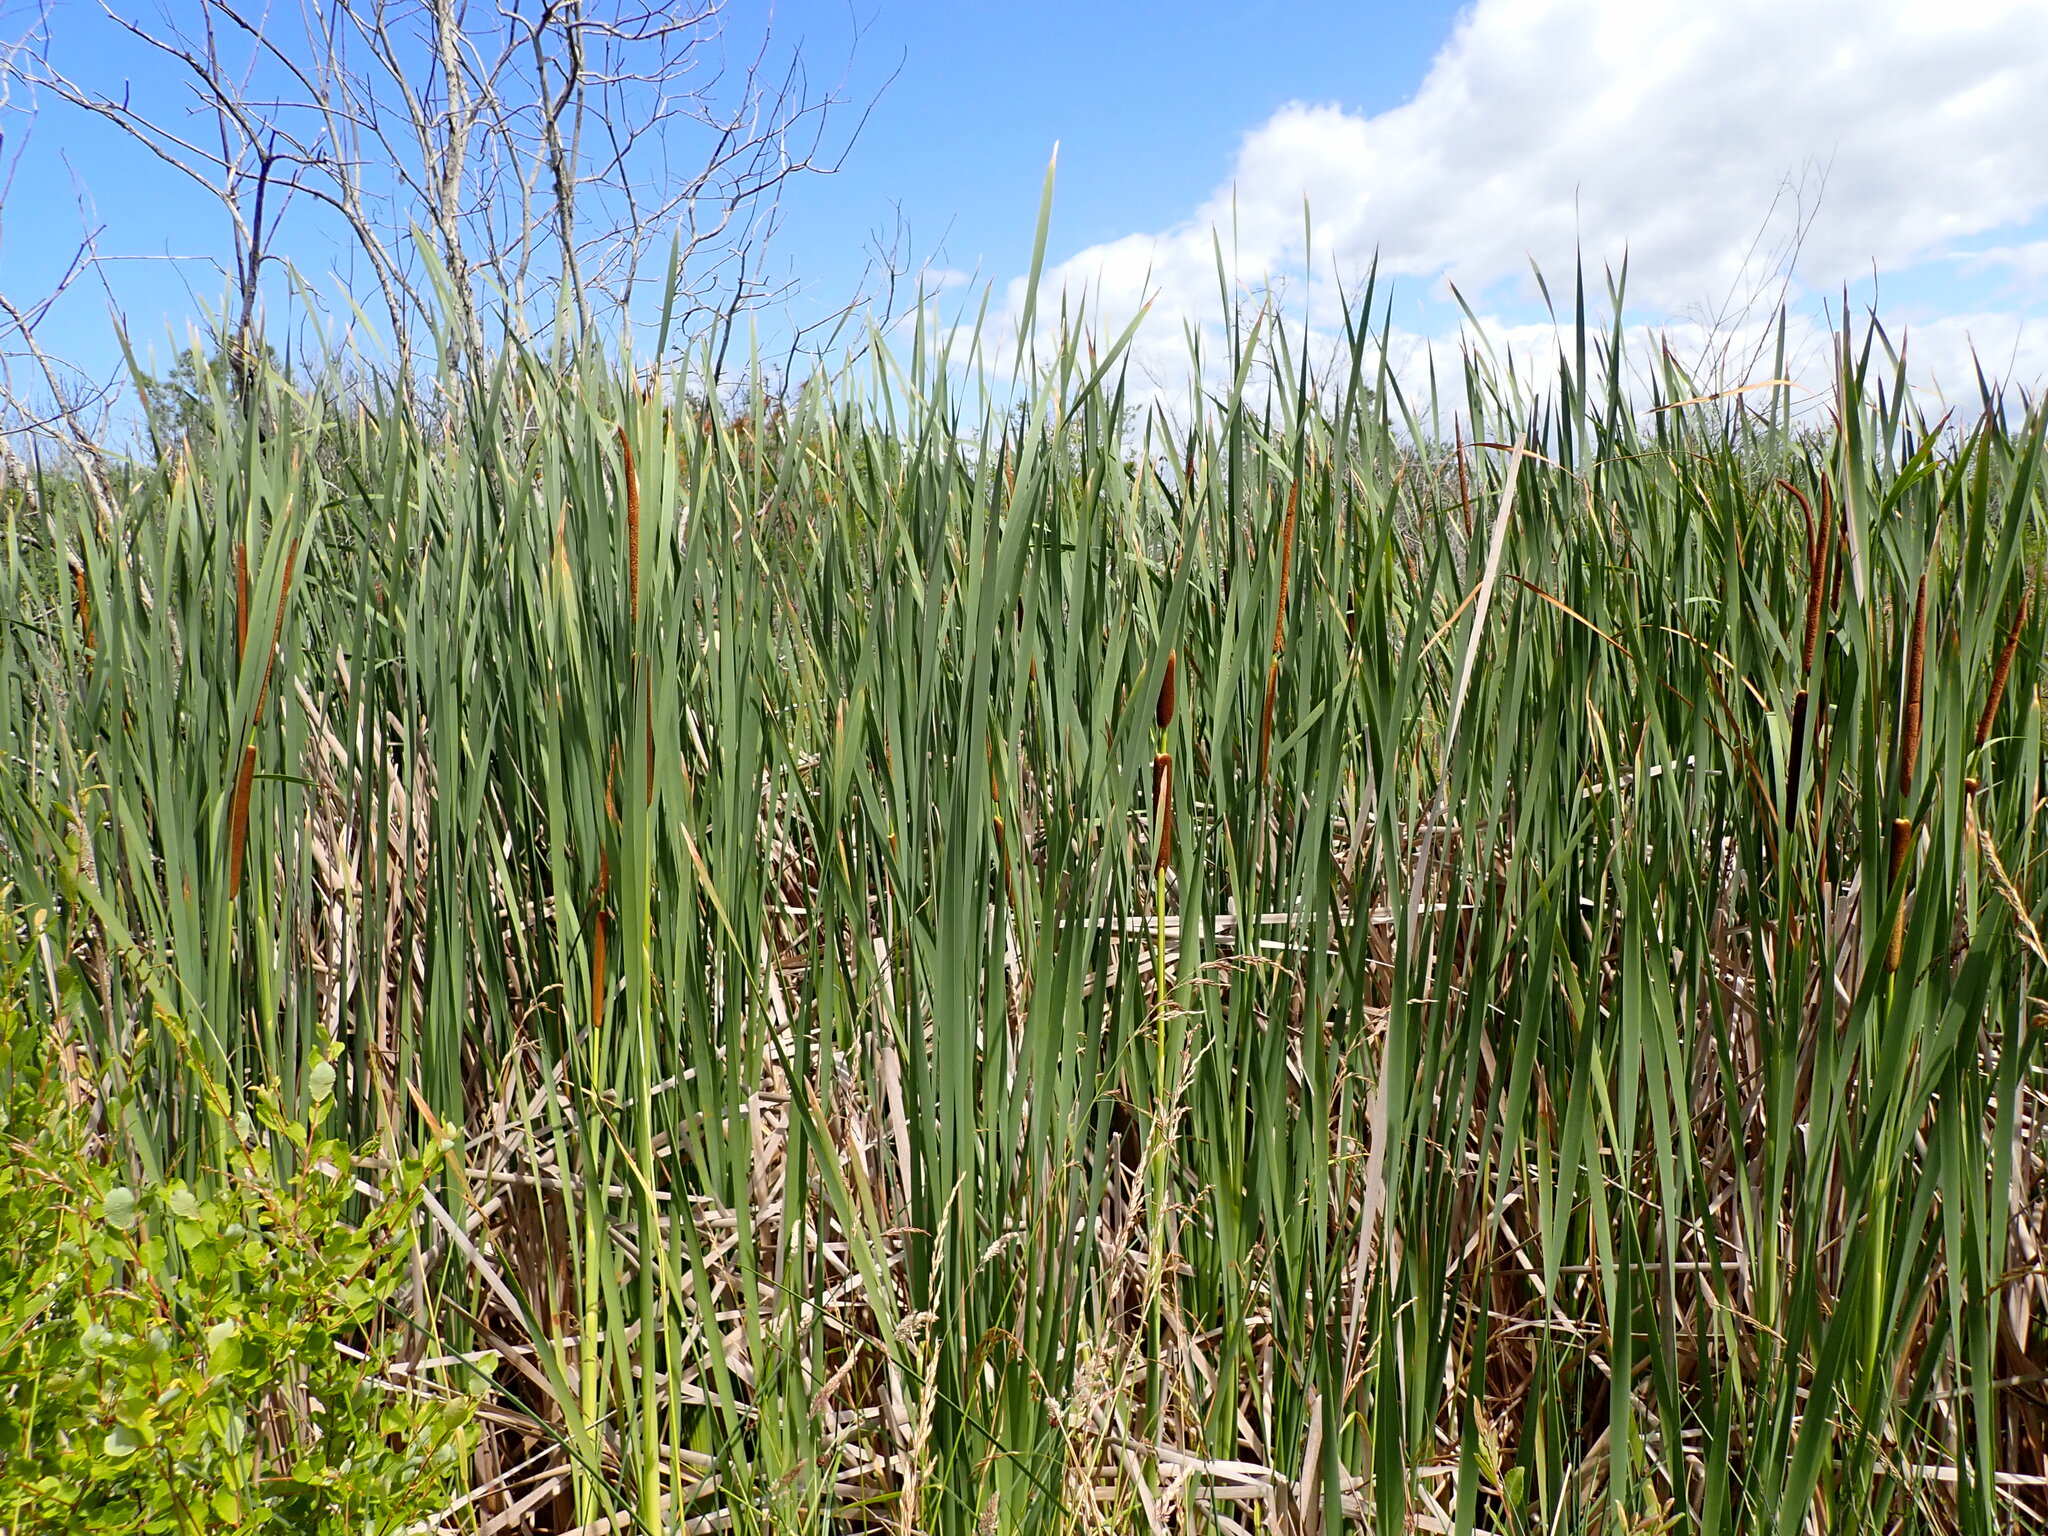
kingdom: Plantae
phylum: Tracheophyta
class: Liliopsida
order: Poales
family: Typhaceae
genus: Typha
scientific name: Typha orientalis
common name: Bullrush
